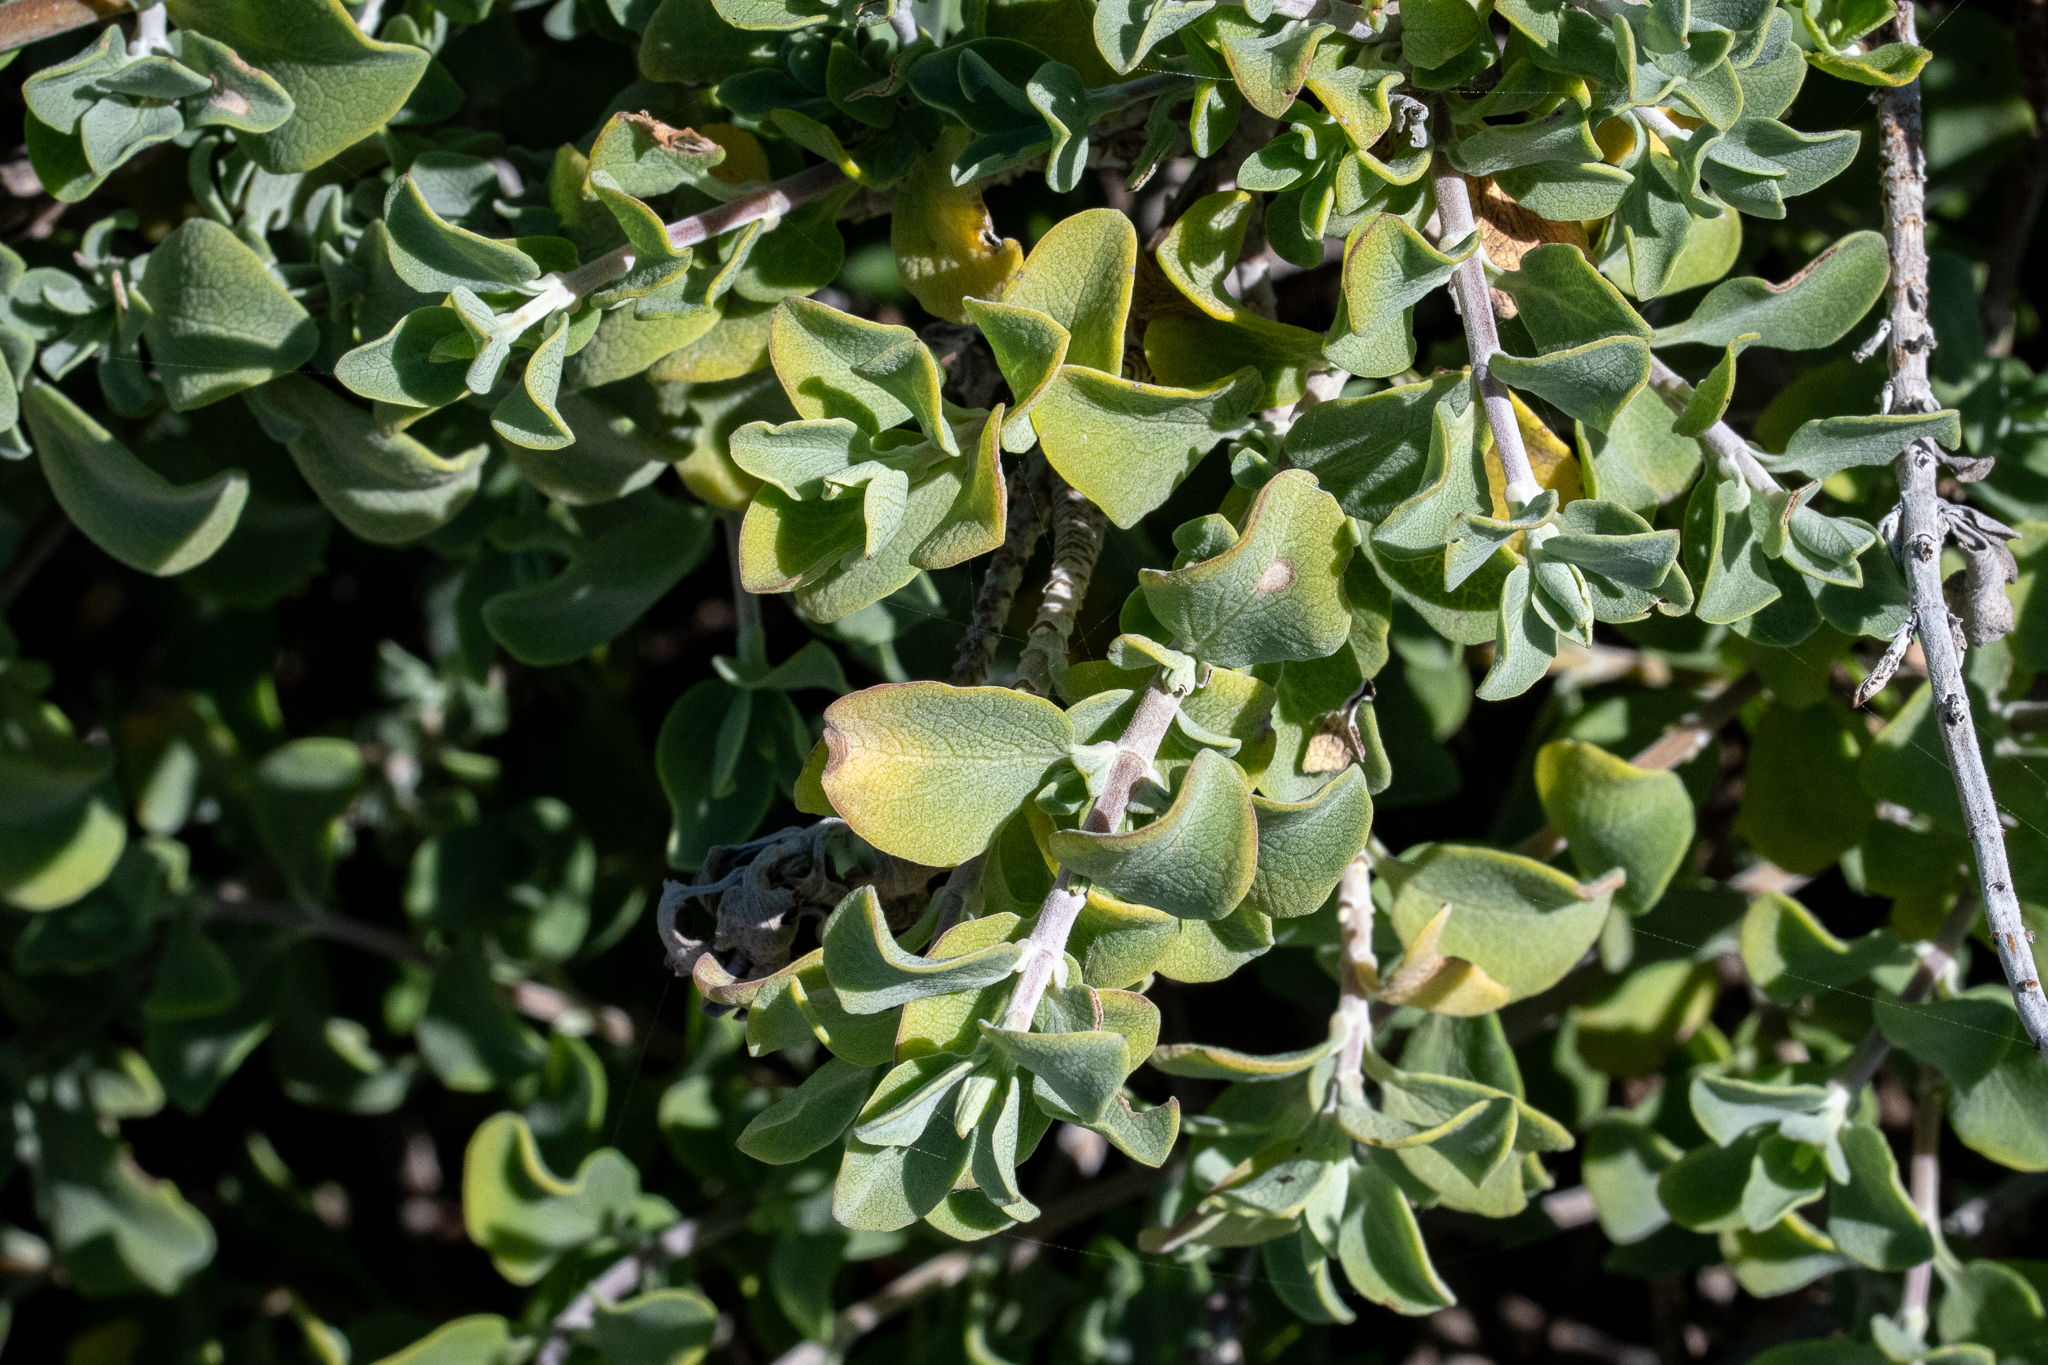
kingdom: Plantae
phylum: Tracheophyta
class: Magnoliopsida
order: Lamiales
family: Lamiaceae
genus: Salvia
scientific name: Salvia aurea
